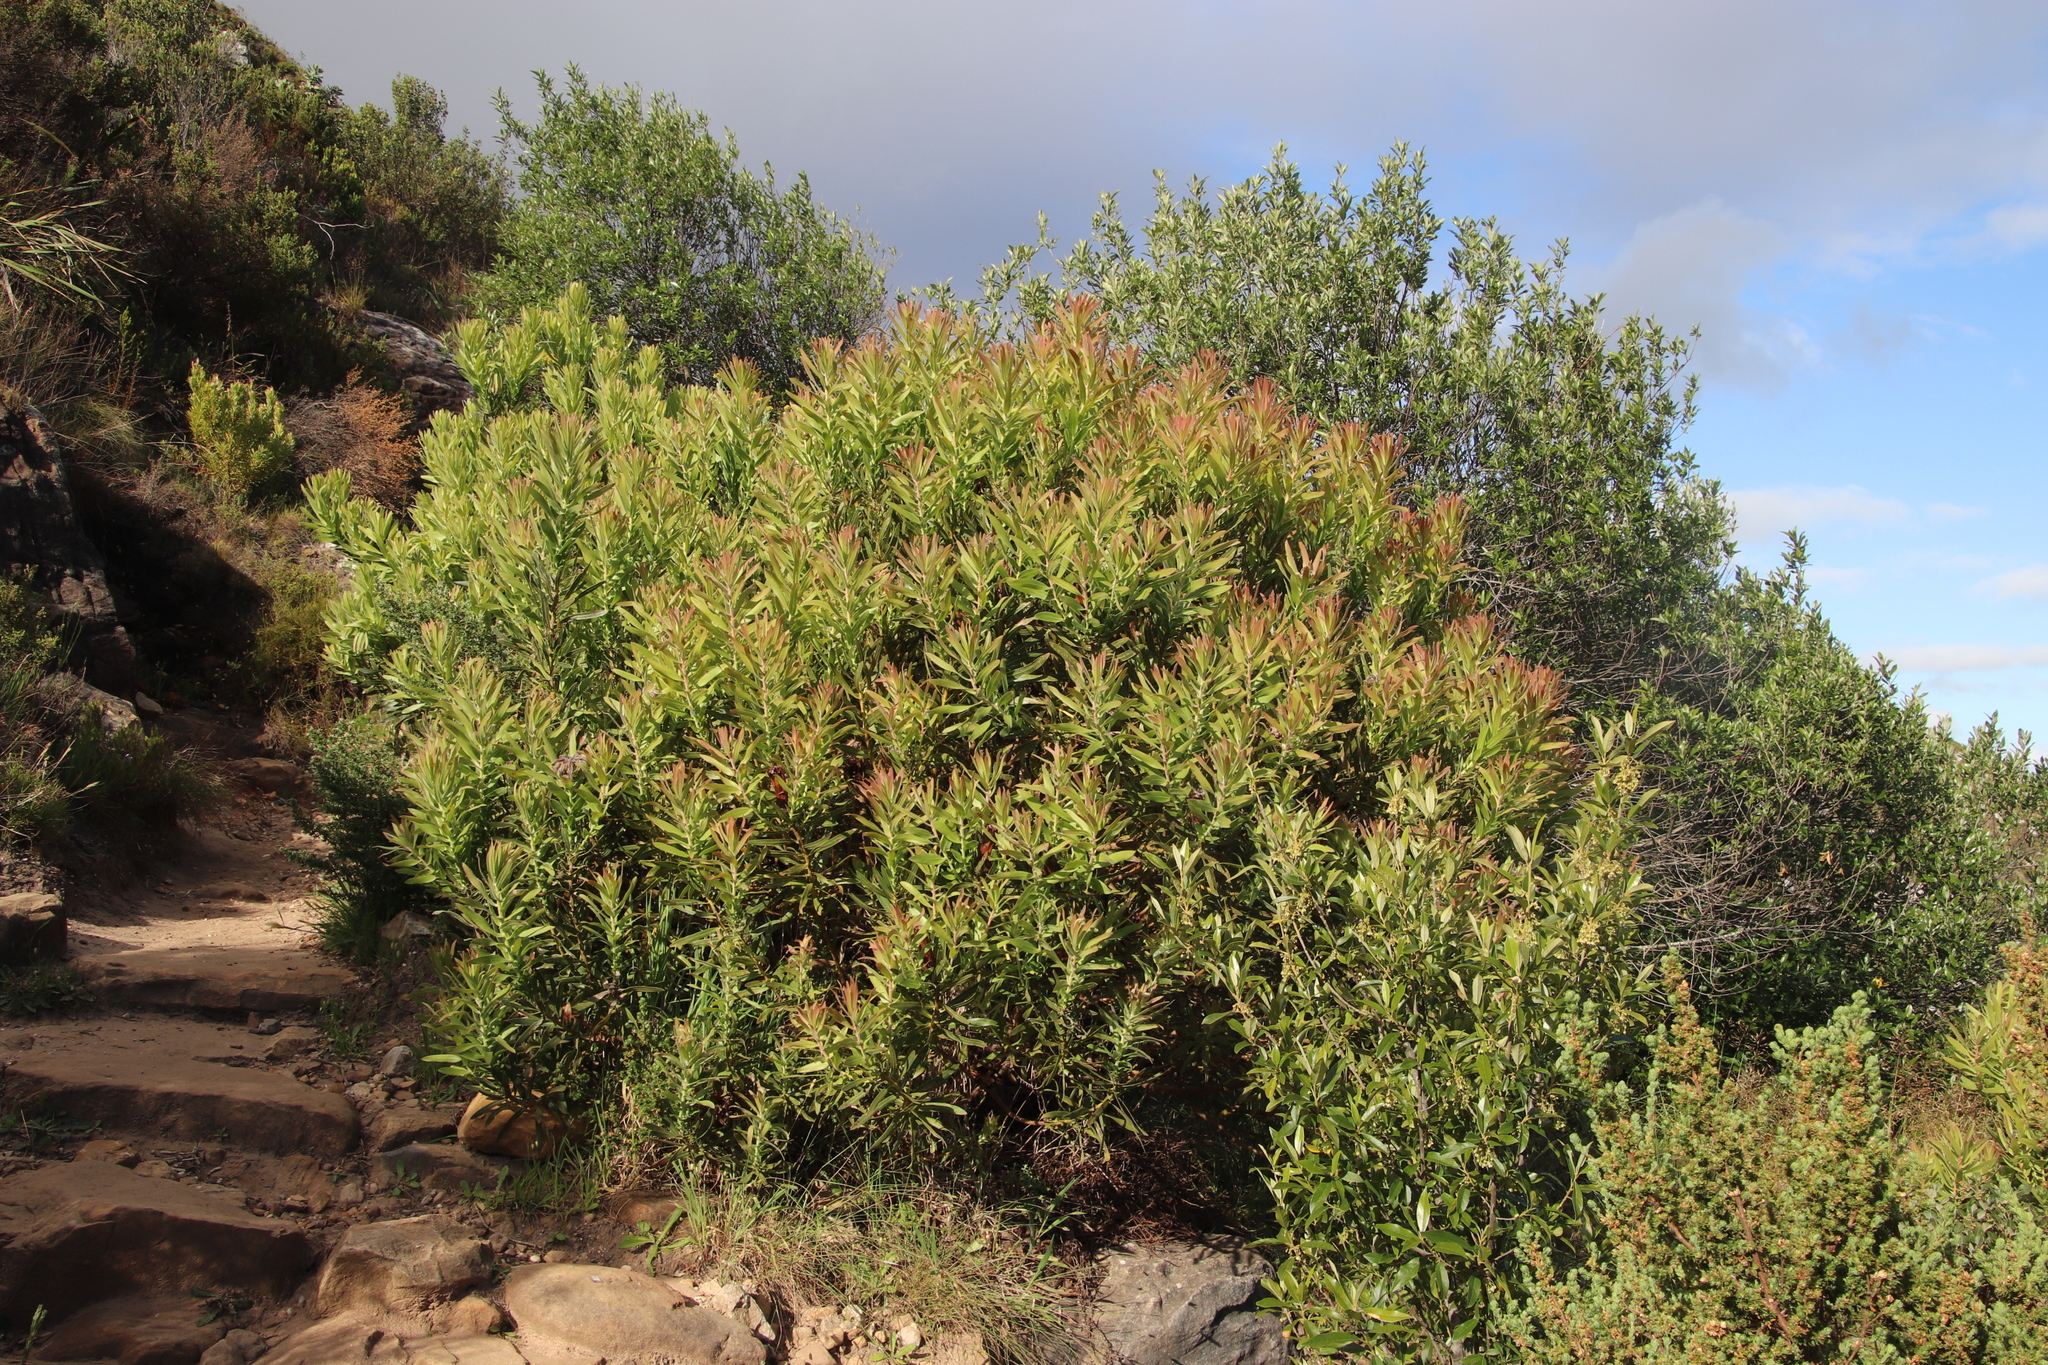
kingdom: Plantae
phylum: Tracheophyta
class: Magnoliopsida
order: Proteales
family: Proteaceae
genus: Protea
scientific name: Protea lepidocarpodendron
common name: Black-bearded protea
